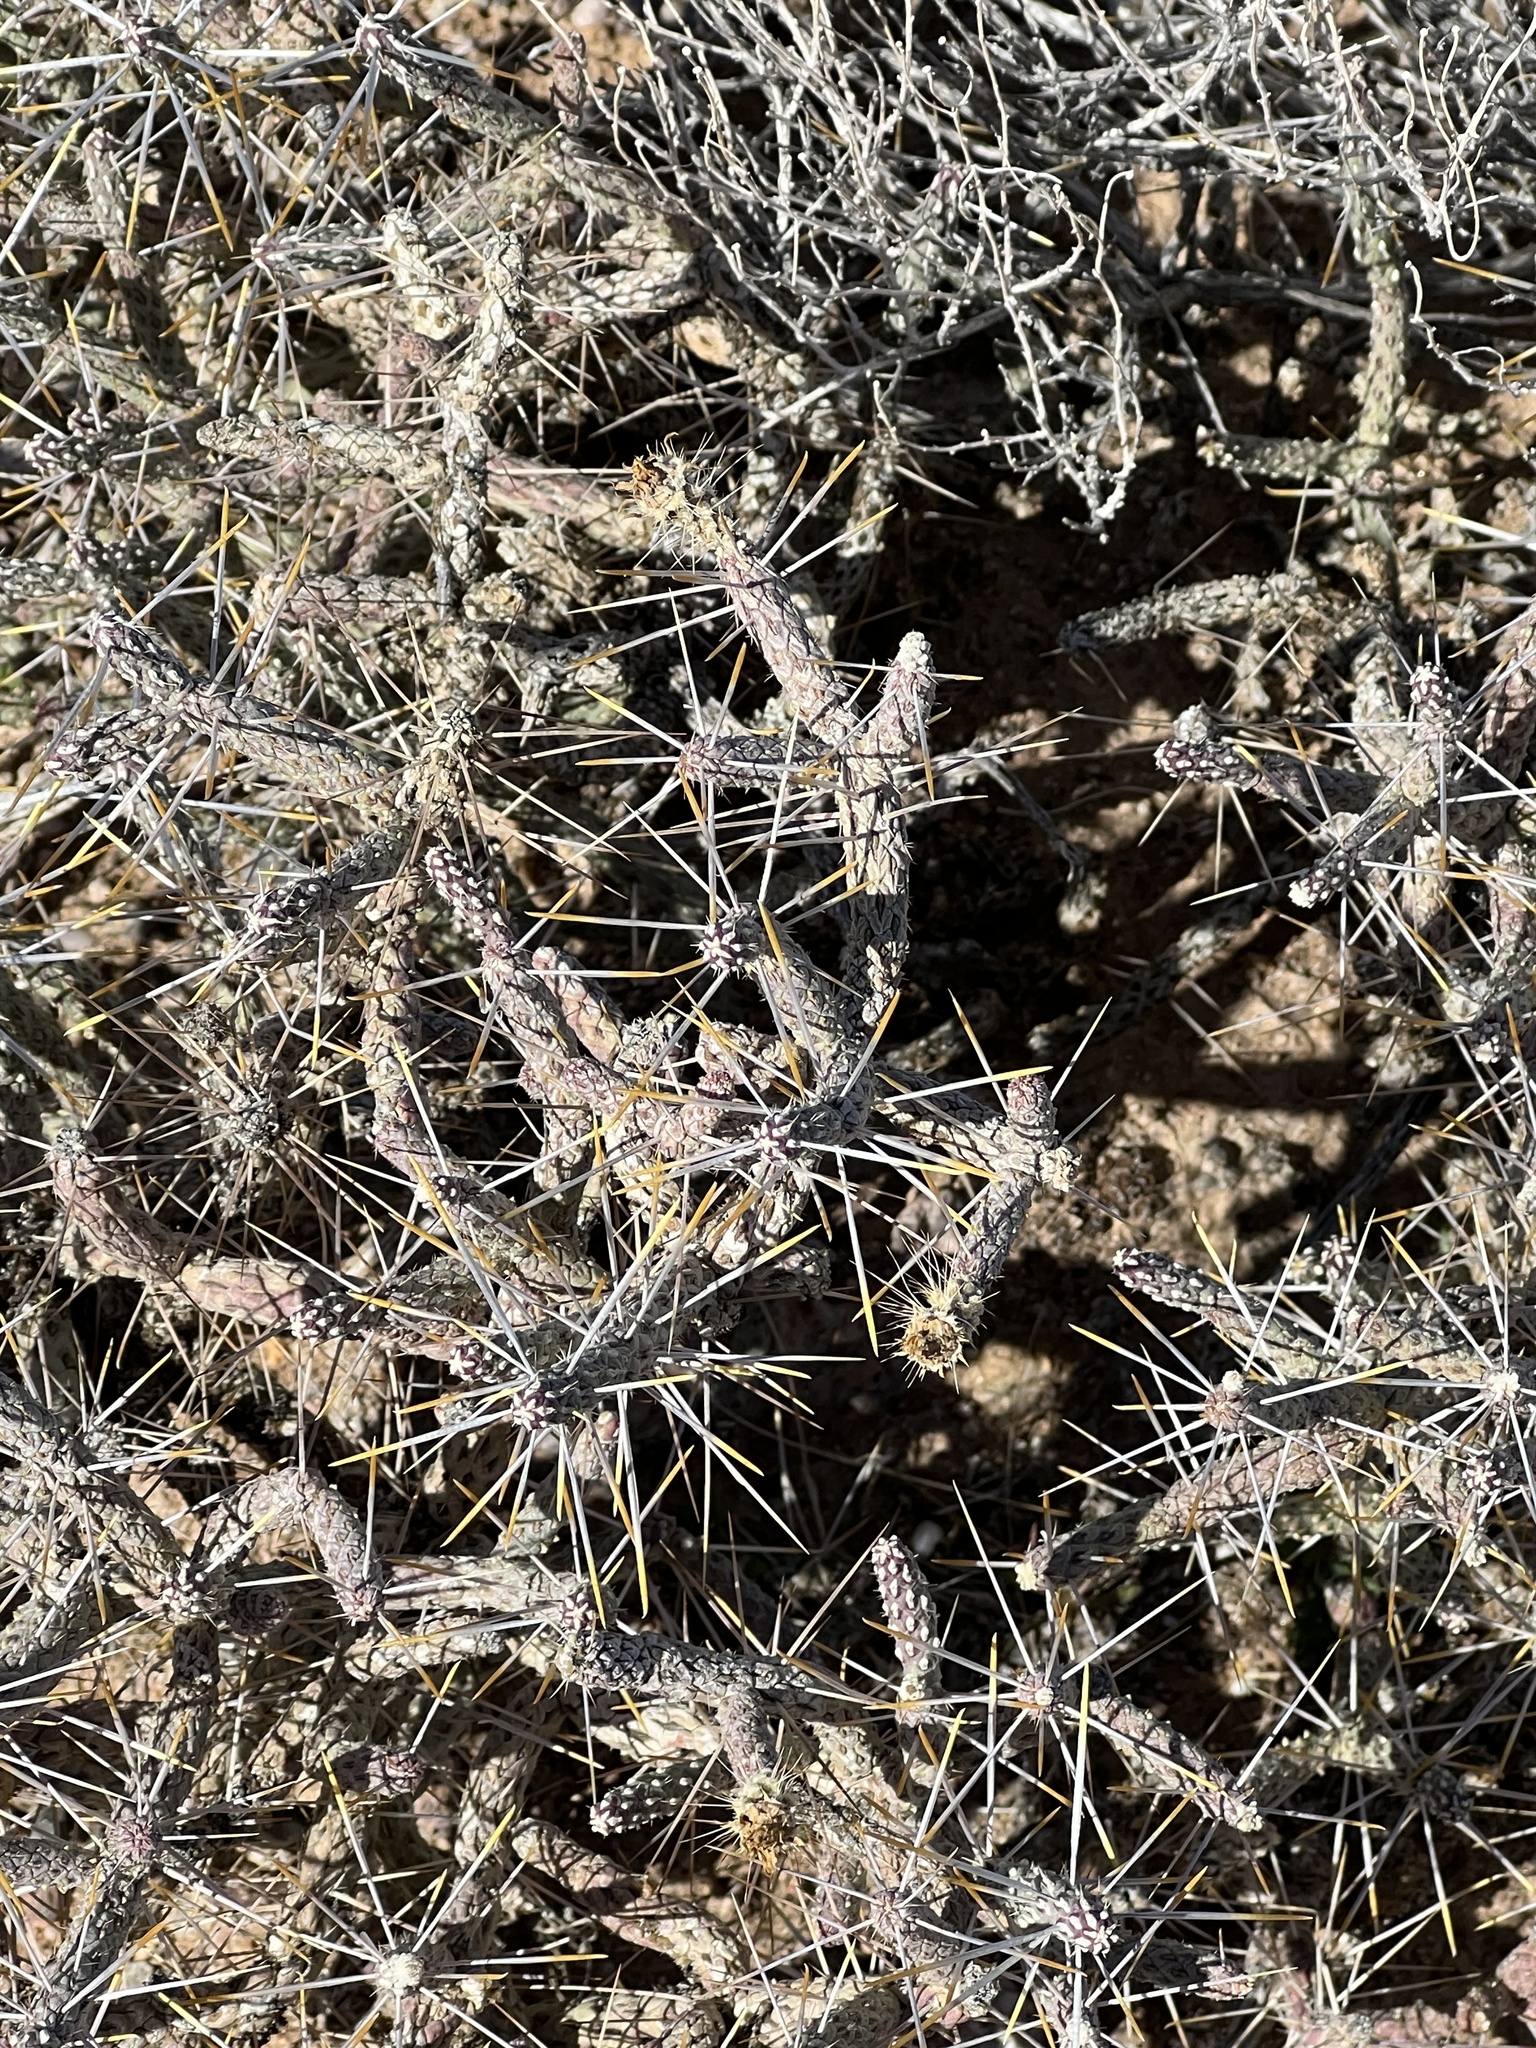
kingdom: Plantae
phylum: Tracheophyta
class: Magnoliopsida
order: Caryophyllales
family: Cactaceae
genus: Cylindropuntia
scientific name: Cylindropuntia ramosissima
